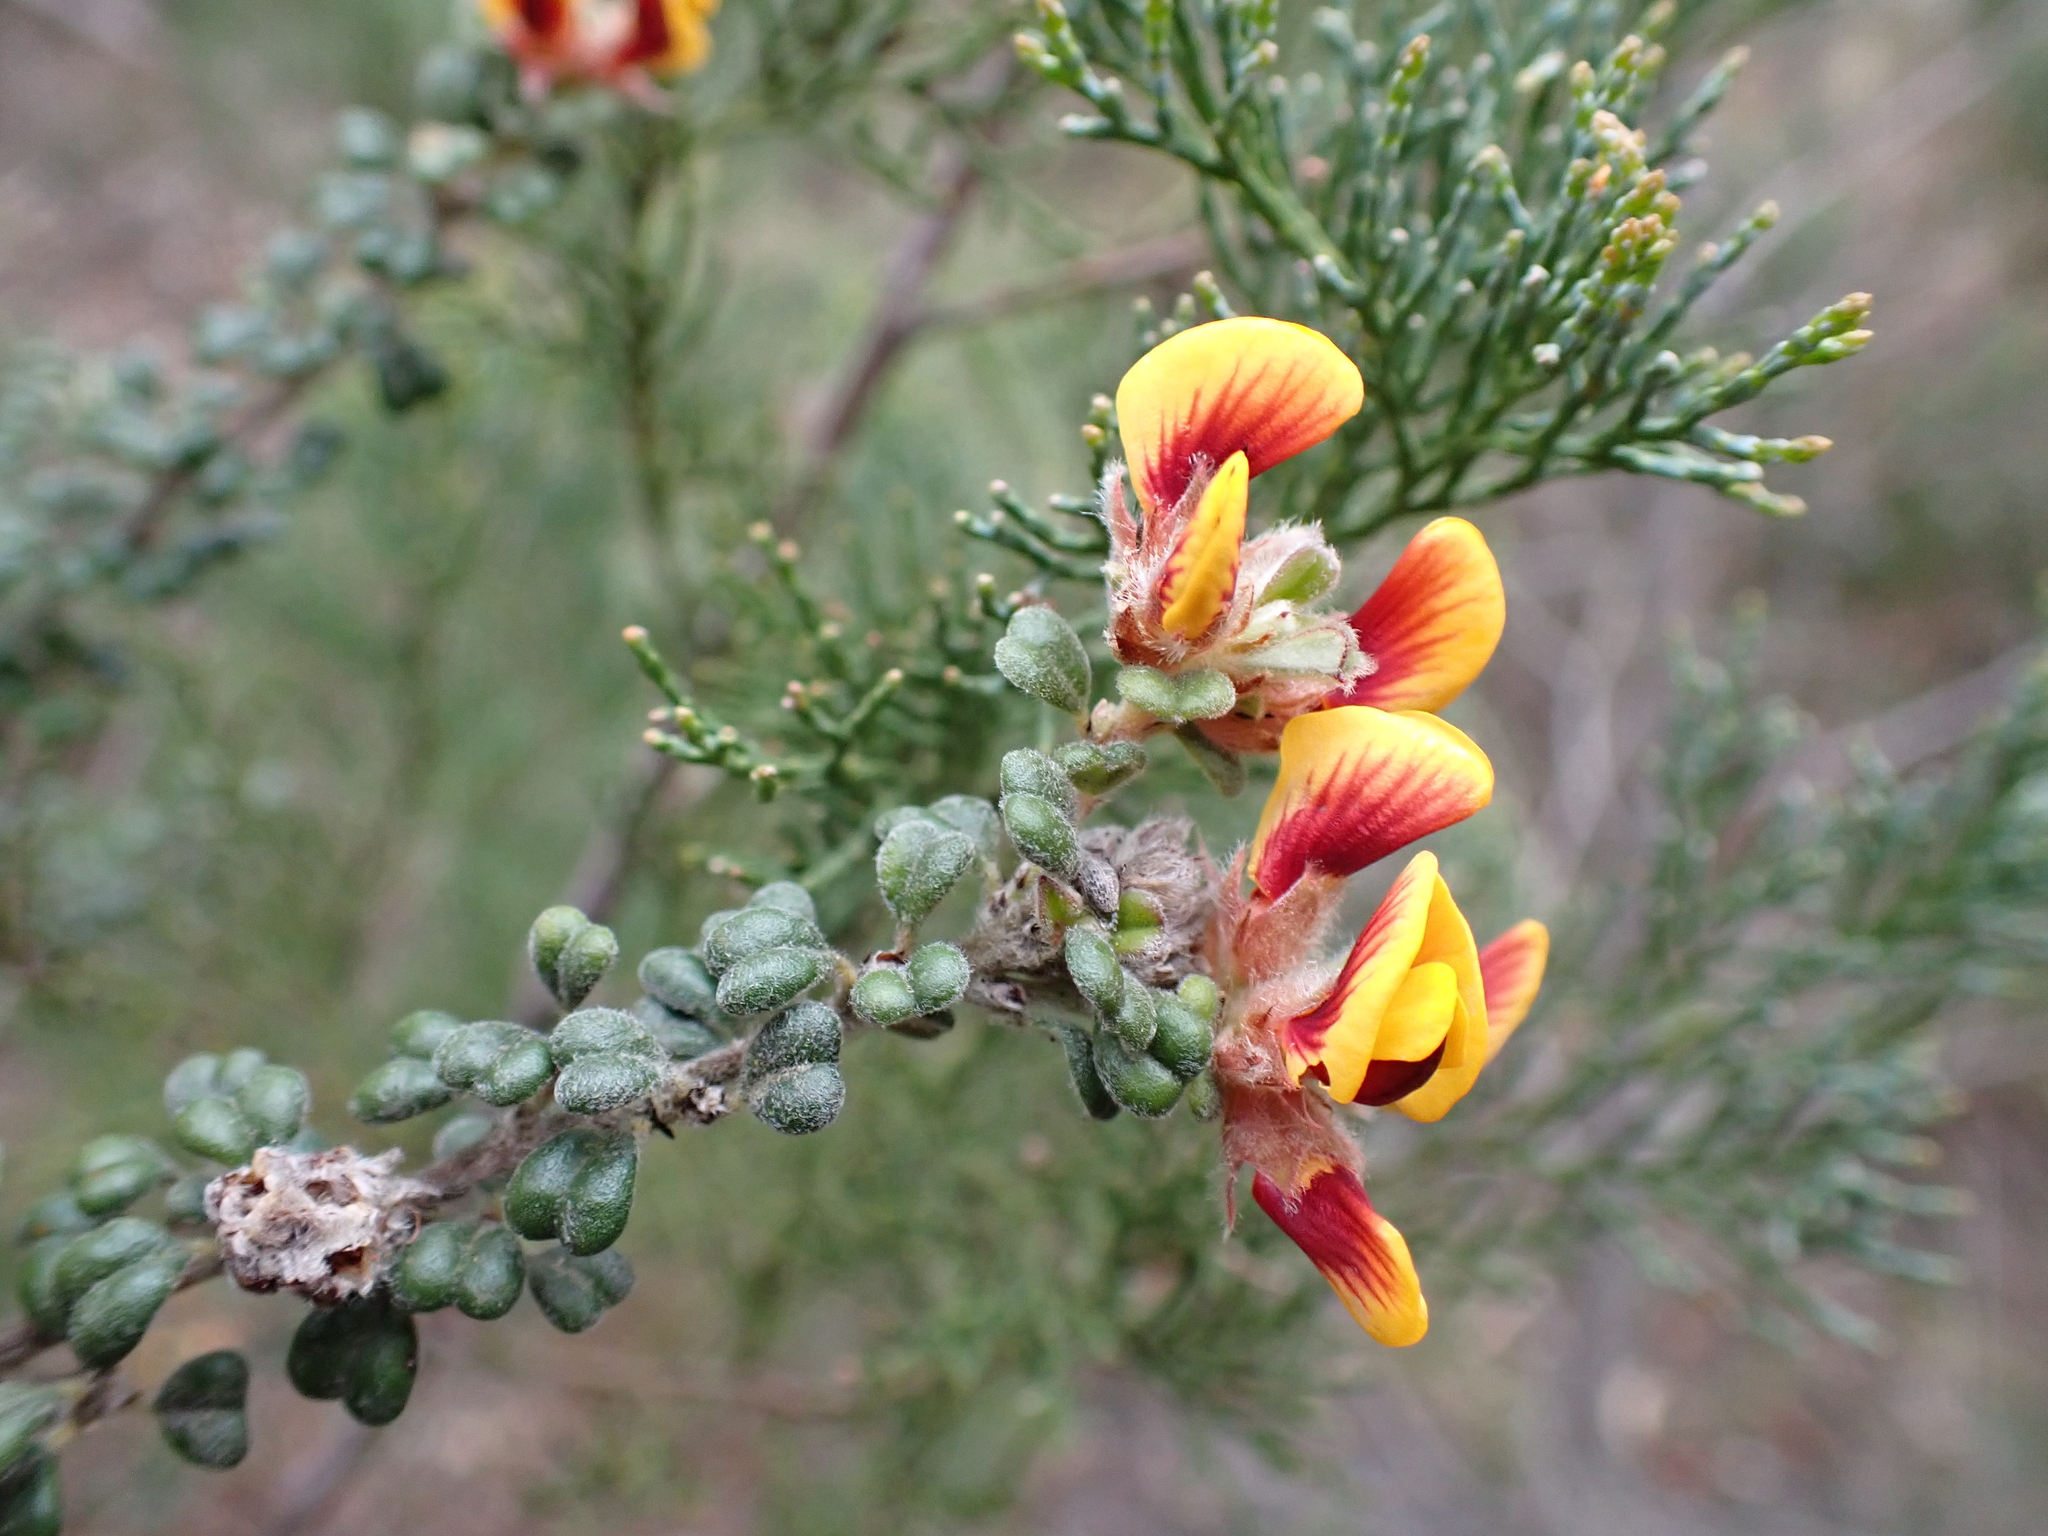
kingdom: Plantae
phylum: Tracheophyta
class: Magnoliopsida
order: Fabales
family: Fabaceae
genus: Pultenaea
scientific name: Pultenaea scabra
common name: Rough bush-pea
